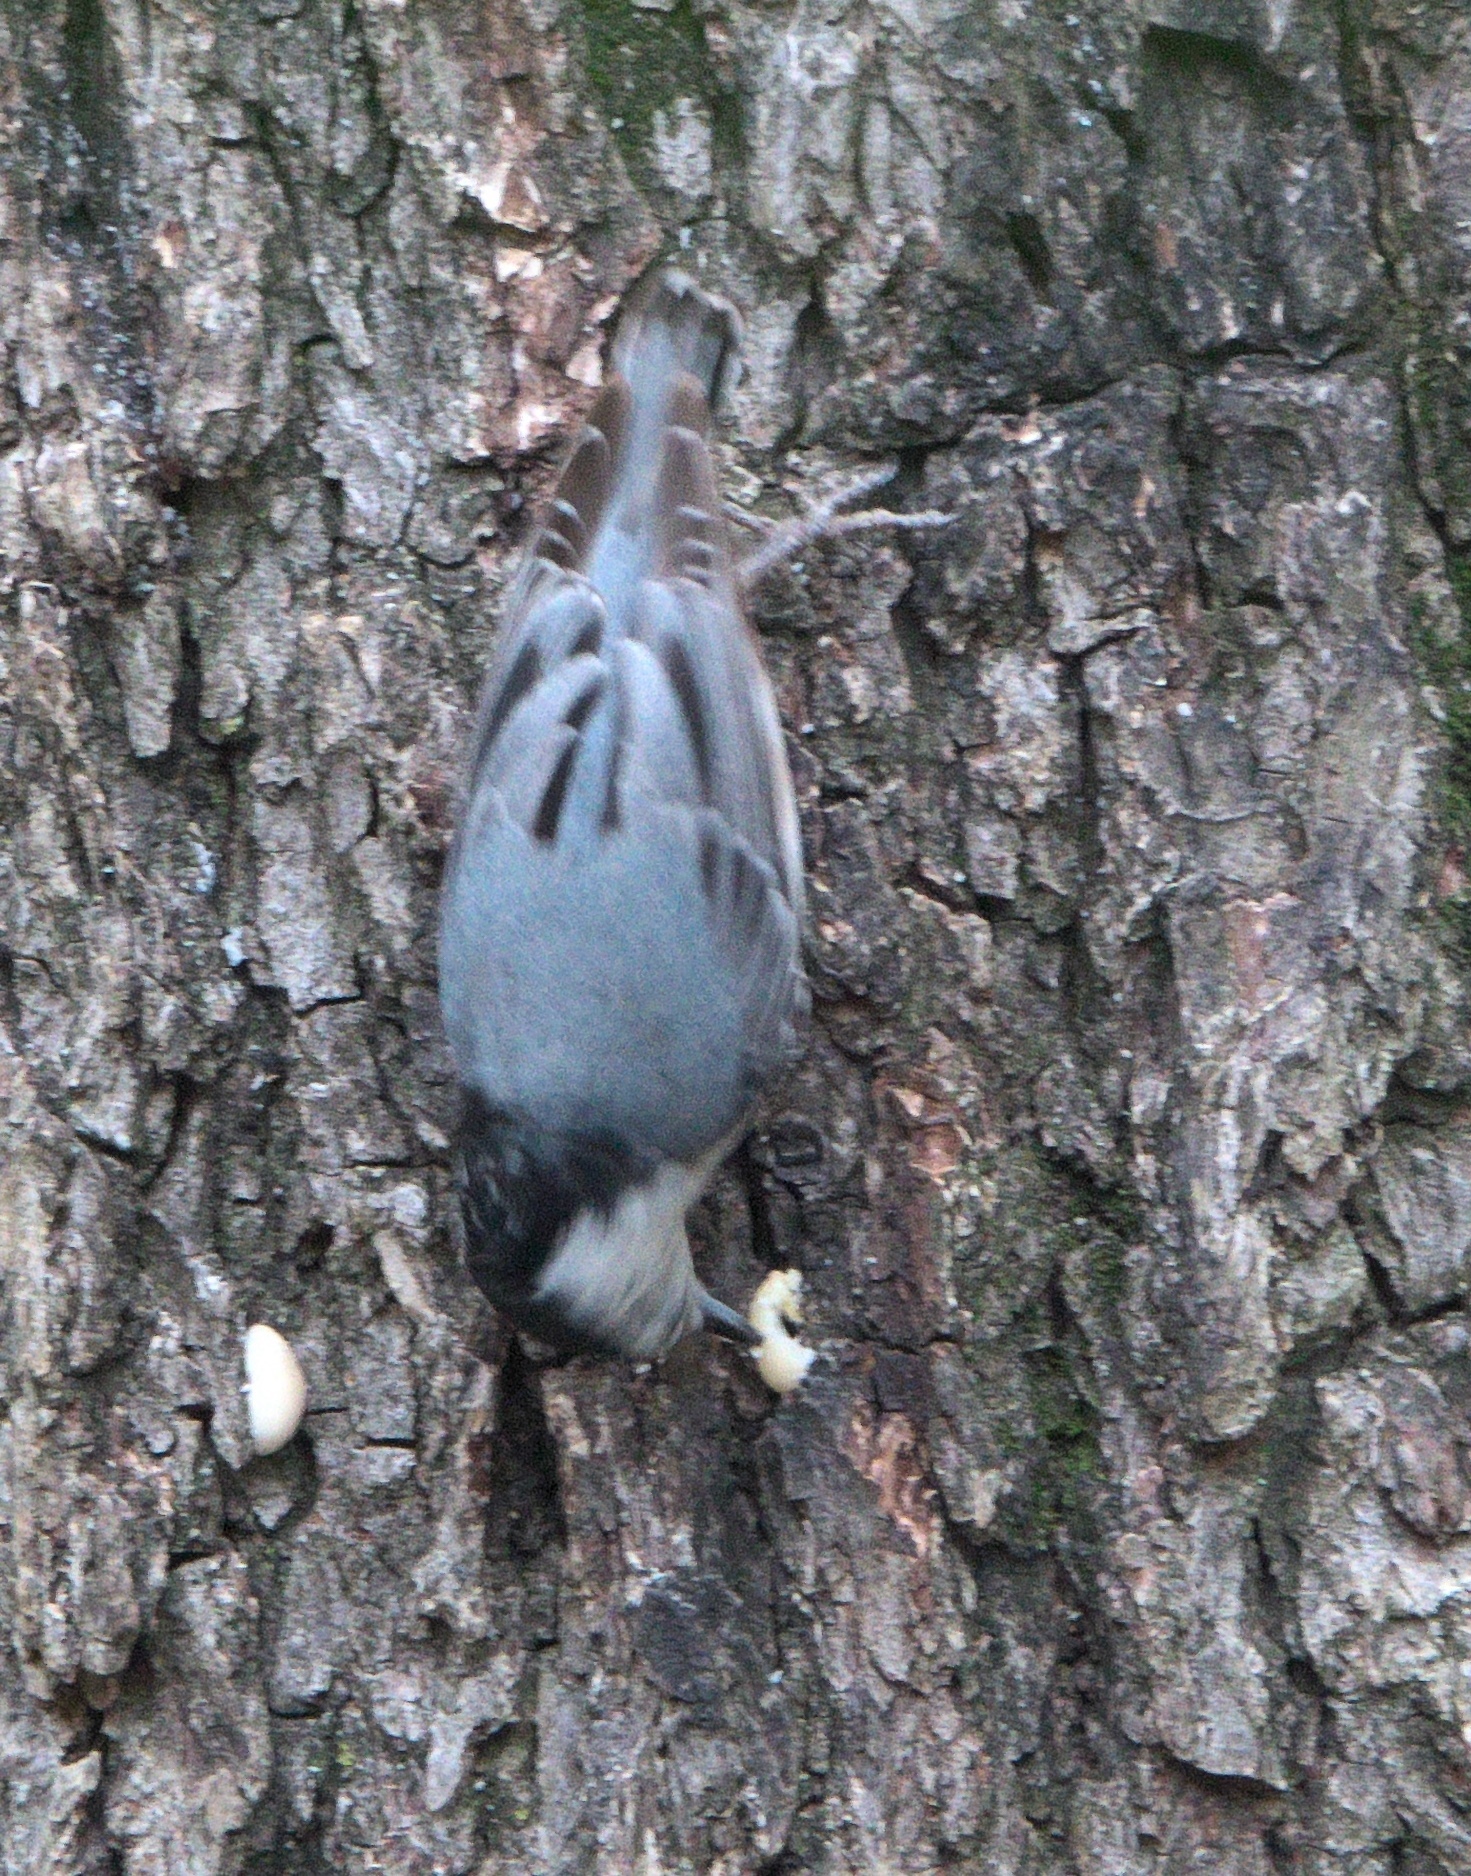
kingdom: Animalia
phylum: Chordata
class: Aves
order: Passeriformes
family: Sittidae
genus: Sitta
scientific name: Sitta carolinensis
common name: White-breasted nuthatch
